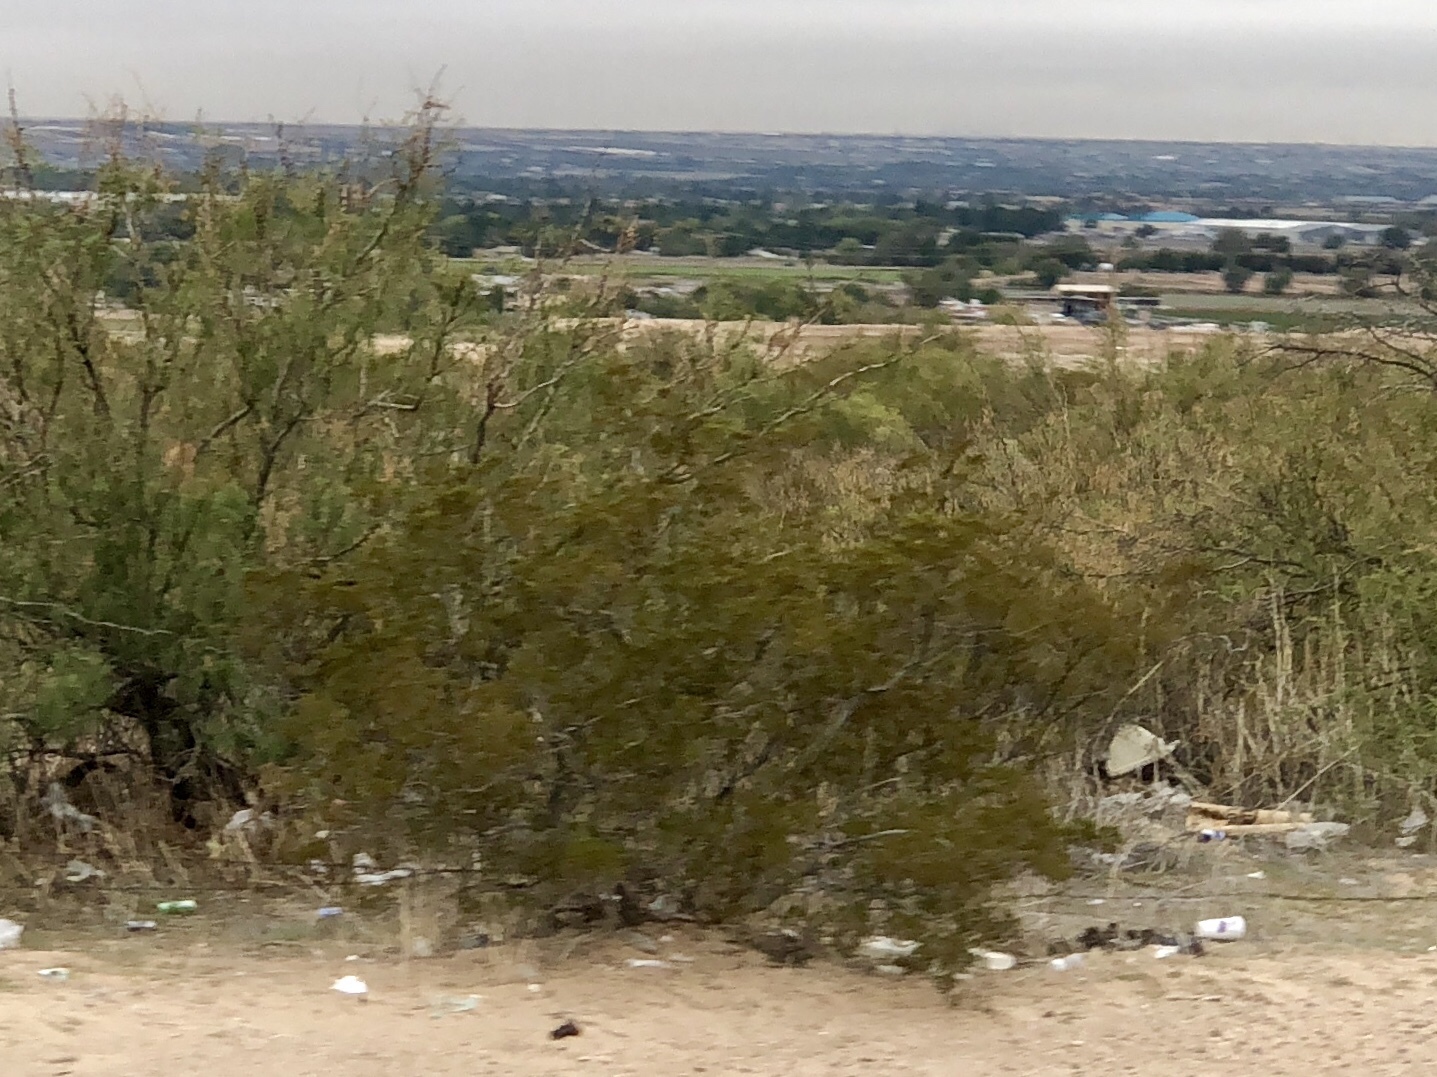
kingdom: Plantae
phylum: Tracheophyta
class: Magnoliopsida
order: Zygophyllales
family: Zygophyllaceae
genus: Larrea
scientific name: Larrea tridentata
